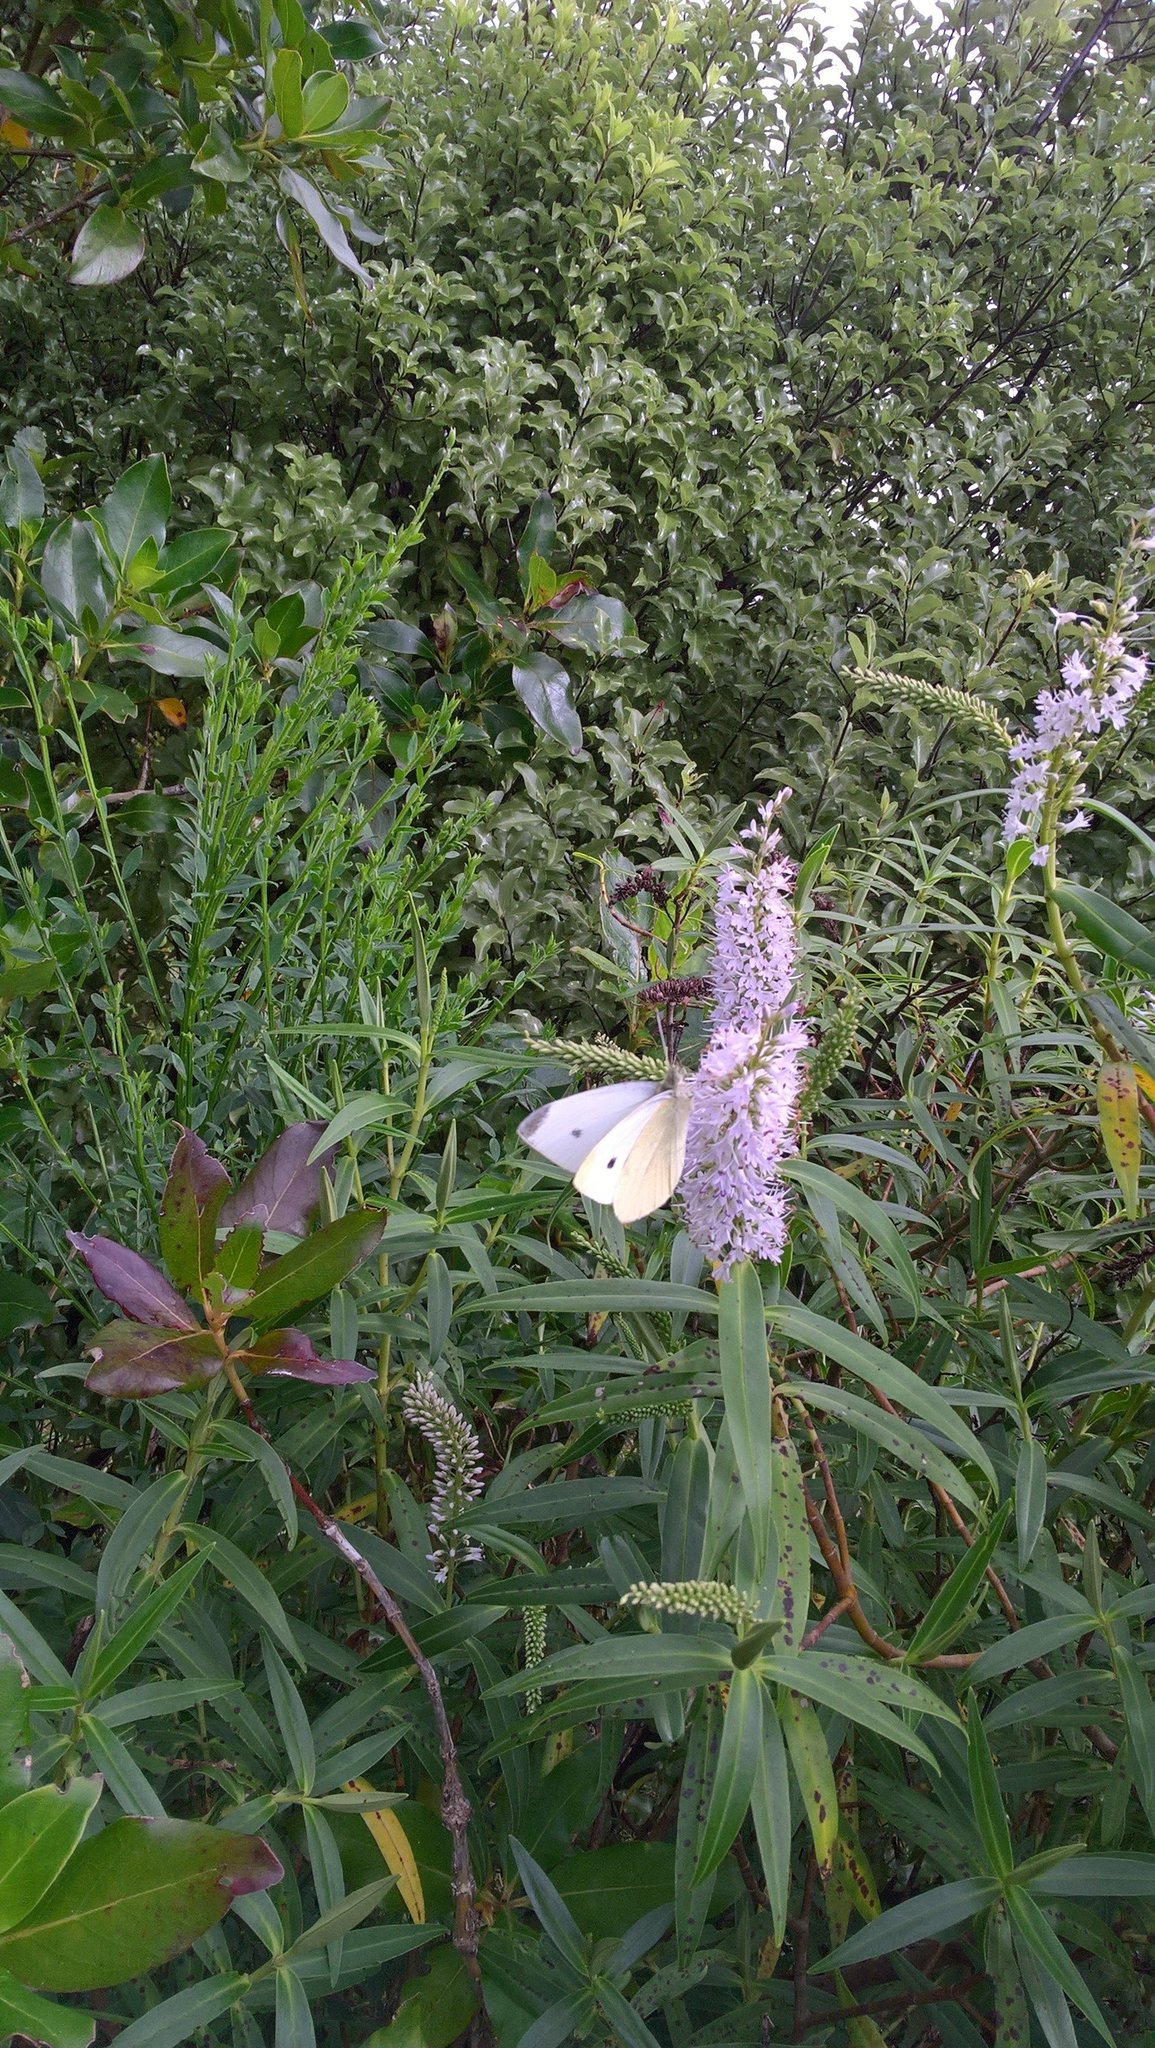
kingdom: Animalia
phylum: Arthropoda
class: Insecta
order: Lepidoptera
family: Pieridae
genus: Pieris
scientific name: Pieris rapae
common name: Small white
